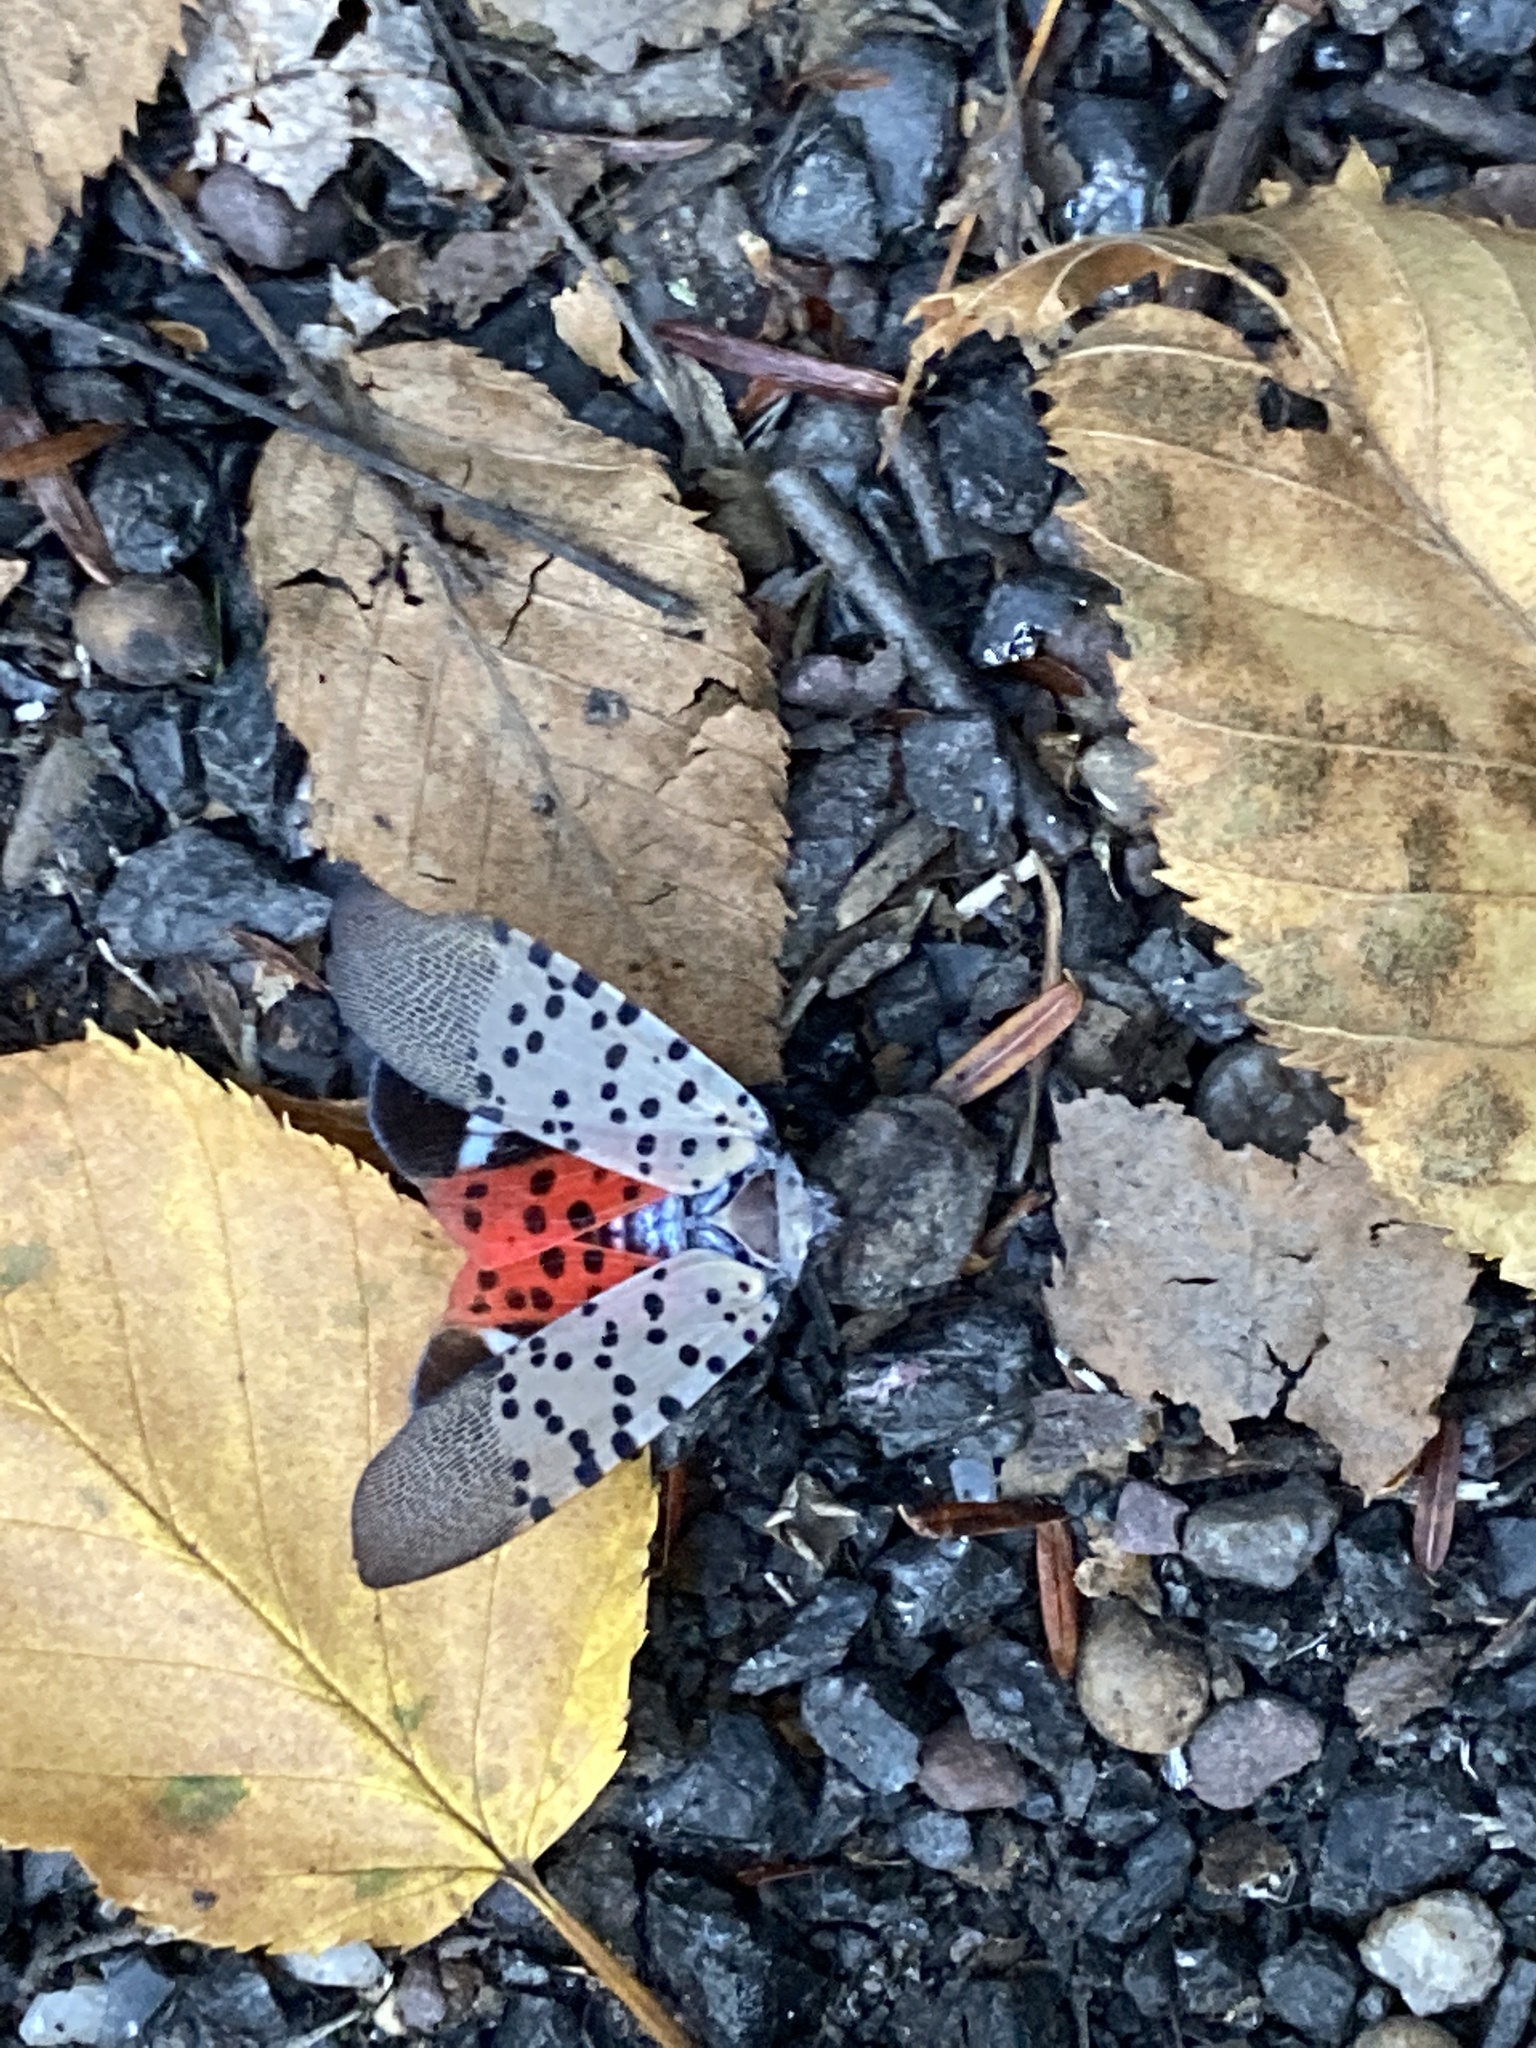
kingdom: Animalia
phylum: Arthropoda
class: Insecta
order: Hemiptera
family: Fulgoridae
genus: Lycorma
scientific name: Lycorma delicatula
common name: Spotted lanternfly
